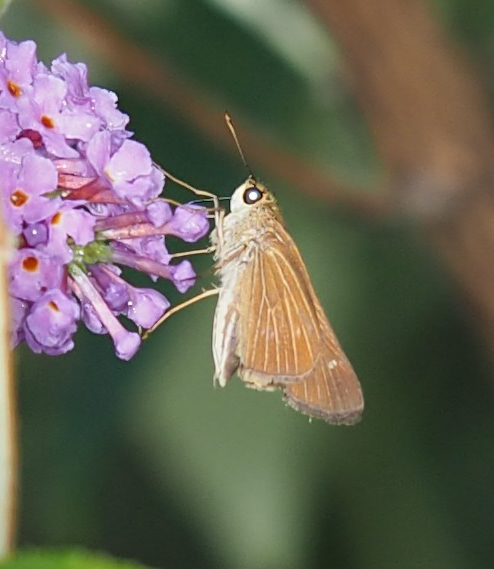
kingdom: Animalia
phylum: Arthropoda
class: Insecta
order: Lepidoptera
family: Hesperiidae
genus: Panoquina
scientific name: Panoquina ocola
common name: Ocola skipper
